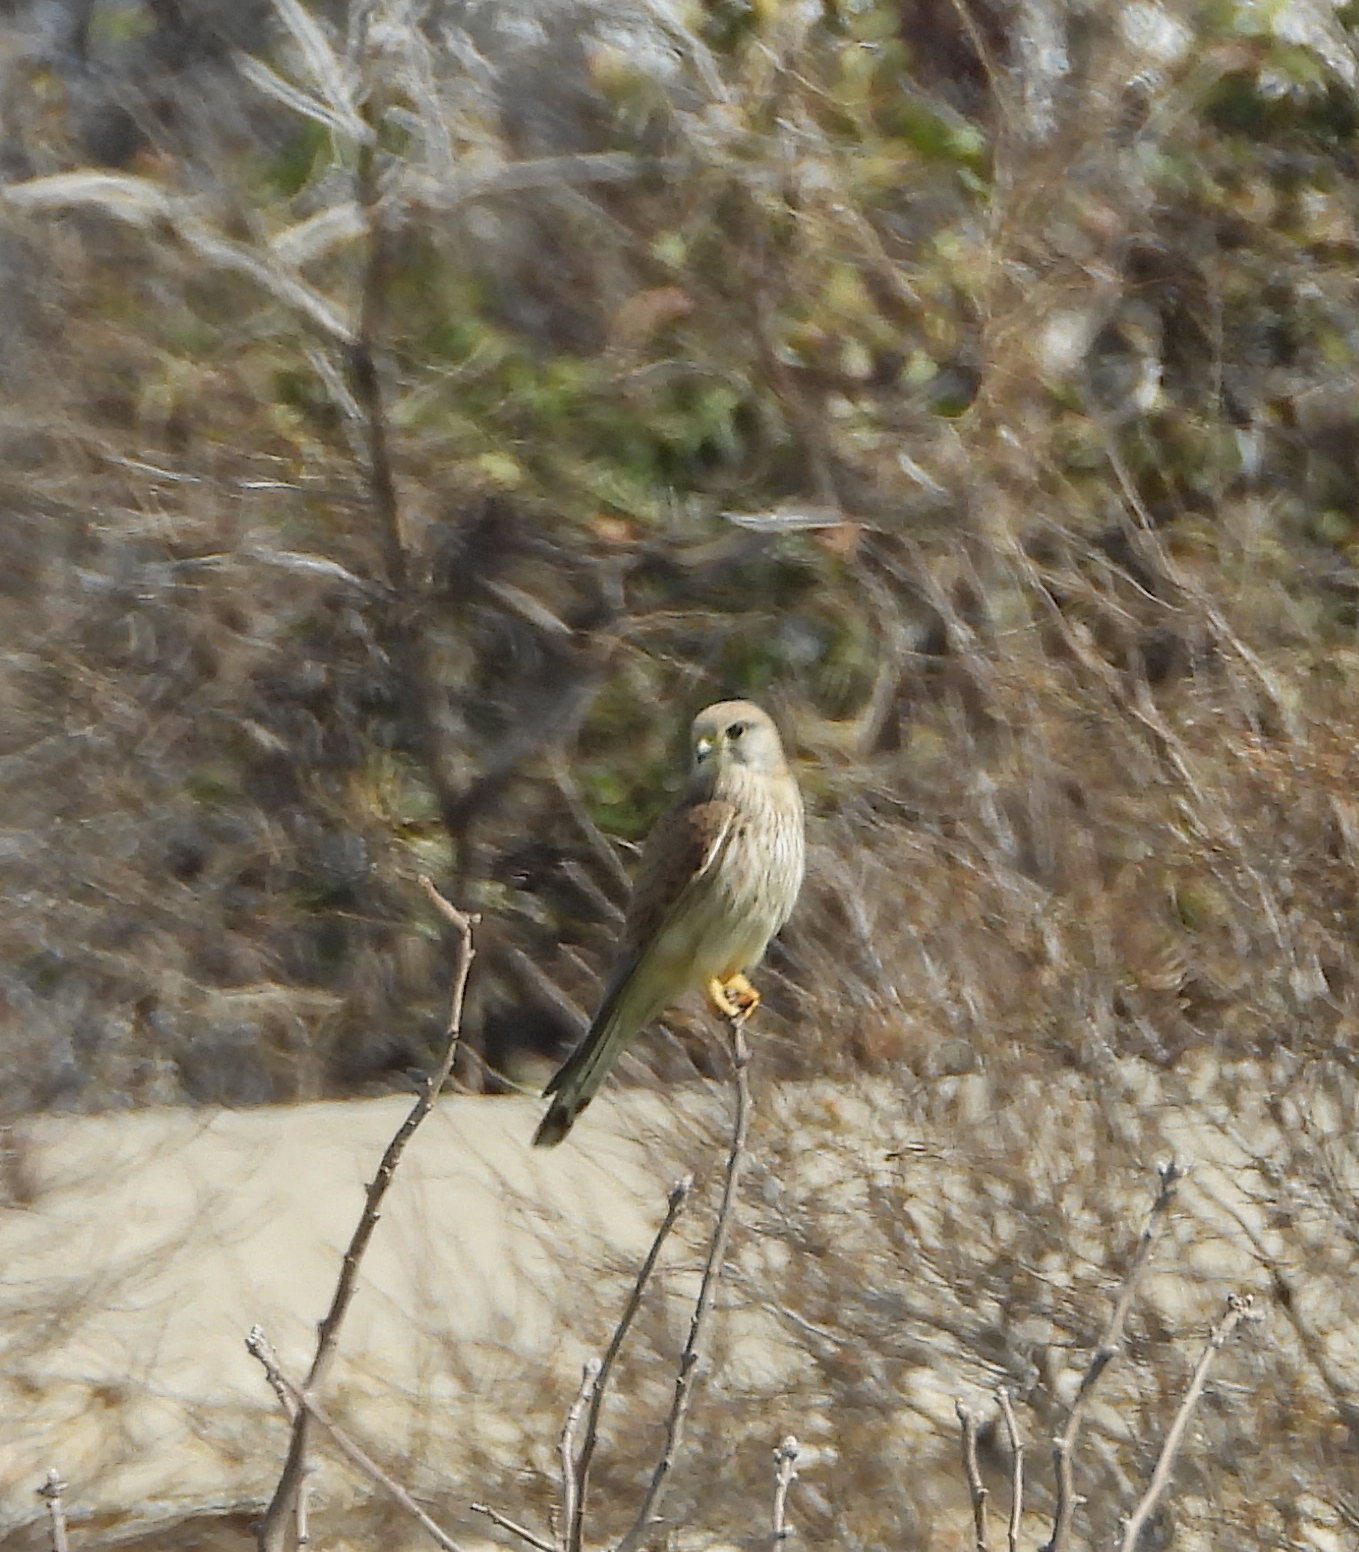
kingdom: Animalia
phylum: Chordata
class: Aves
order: Falconiformes
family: Falconidae
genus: Falco
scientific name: Falco tinnunculus
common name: Common kestrel
